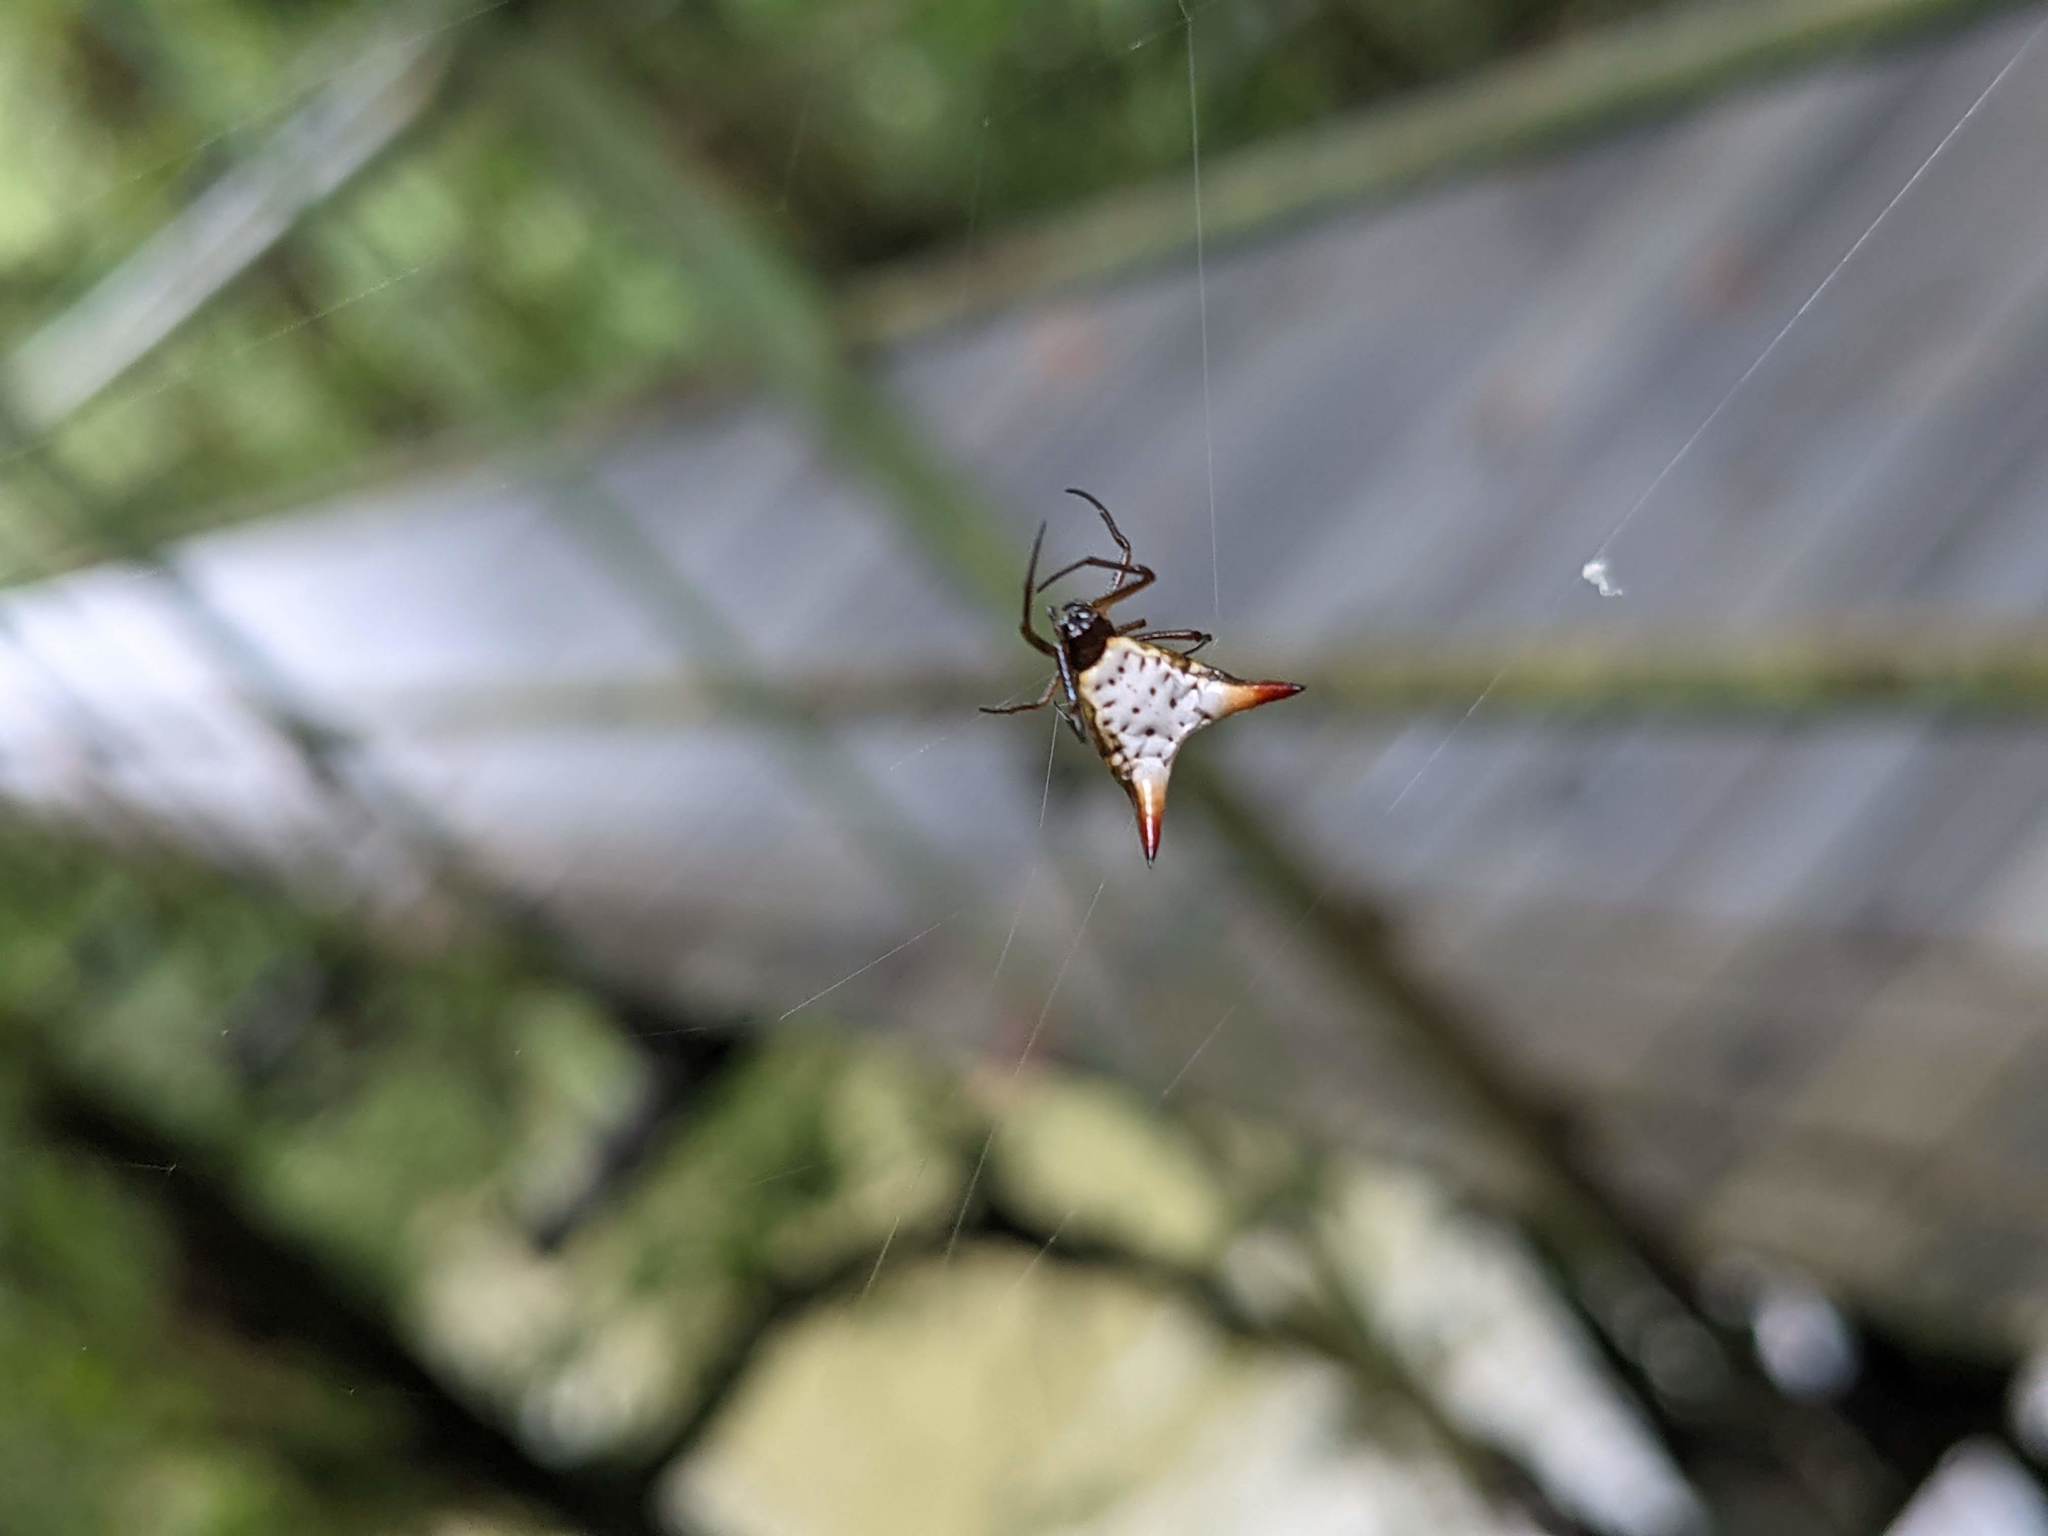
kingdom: Animalia
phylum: Arthropoda
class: Arachnida
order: Araneae
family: Araneidae
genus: Micrathena
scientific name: Micrathena bimucronata
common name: Orb weavers
